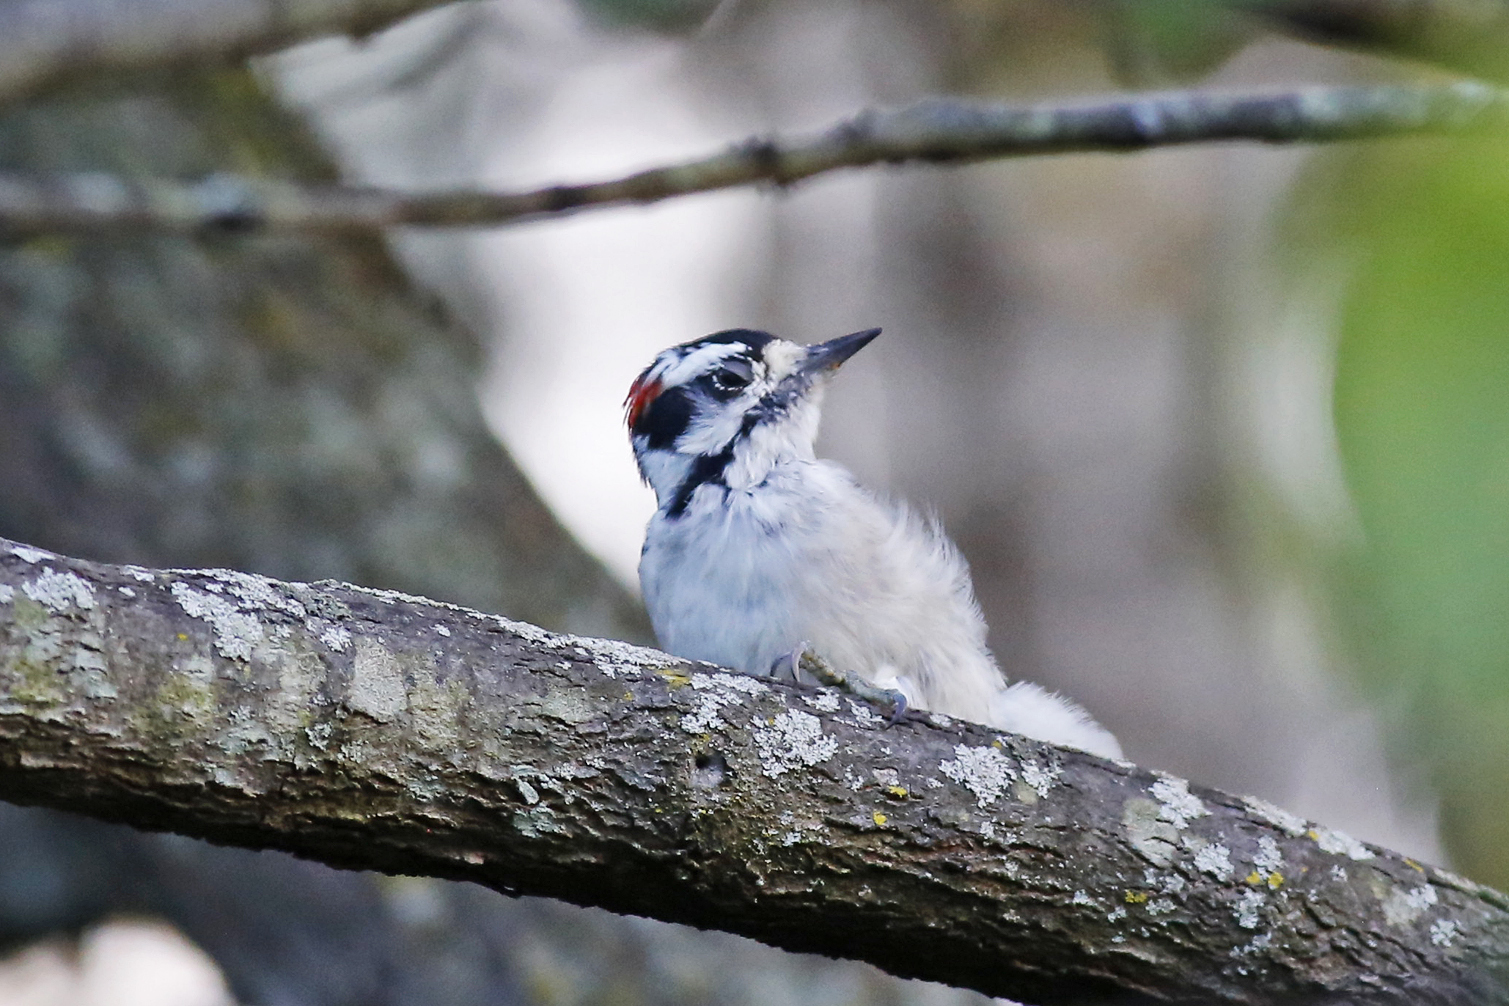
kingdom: Animalia
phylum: Chordata
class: Aves
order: Piciformes
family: Picidae
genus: Dryobates
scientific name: Dryobates pubescens
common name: Downy woodpecker
